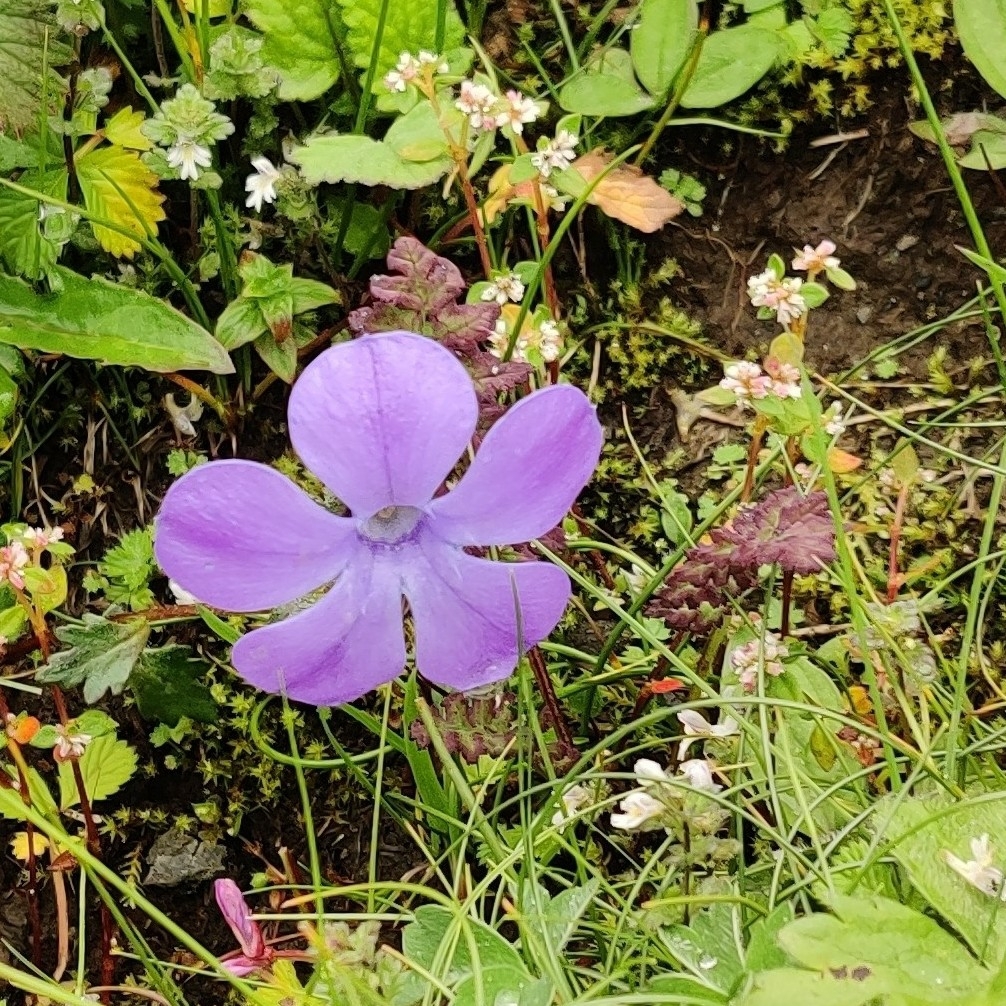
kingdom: Plantae
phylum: Tracheophyta
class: Magnoliopsida
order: Asterales
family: Campanulaceae
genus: Cyananthus
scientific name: Cyananthus lobatus
